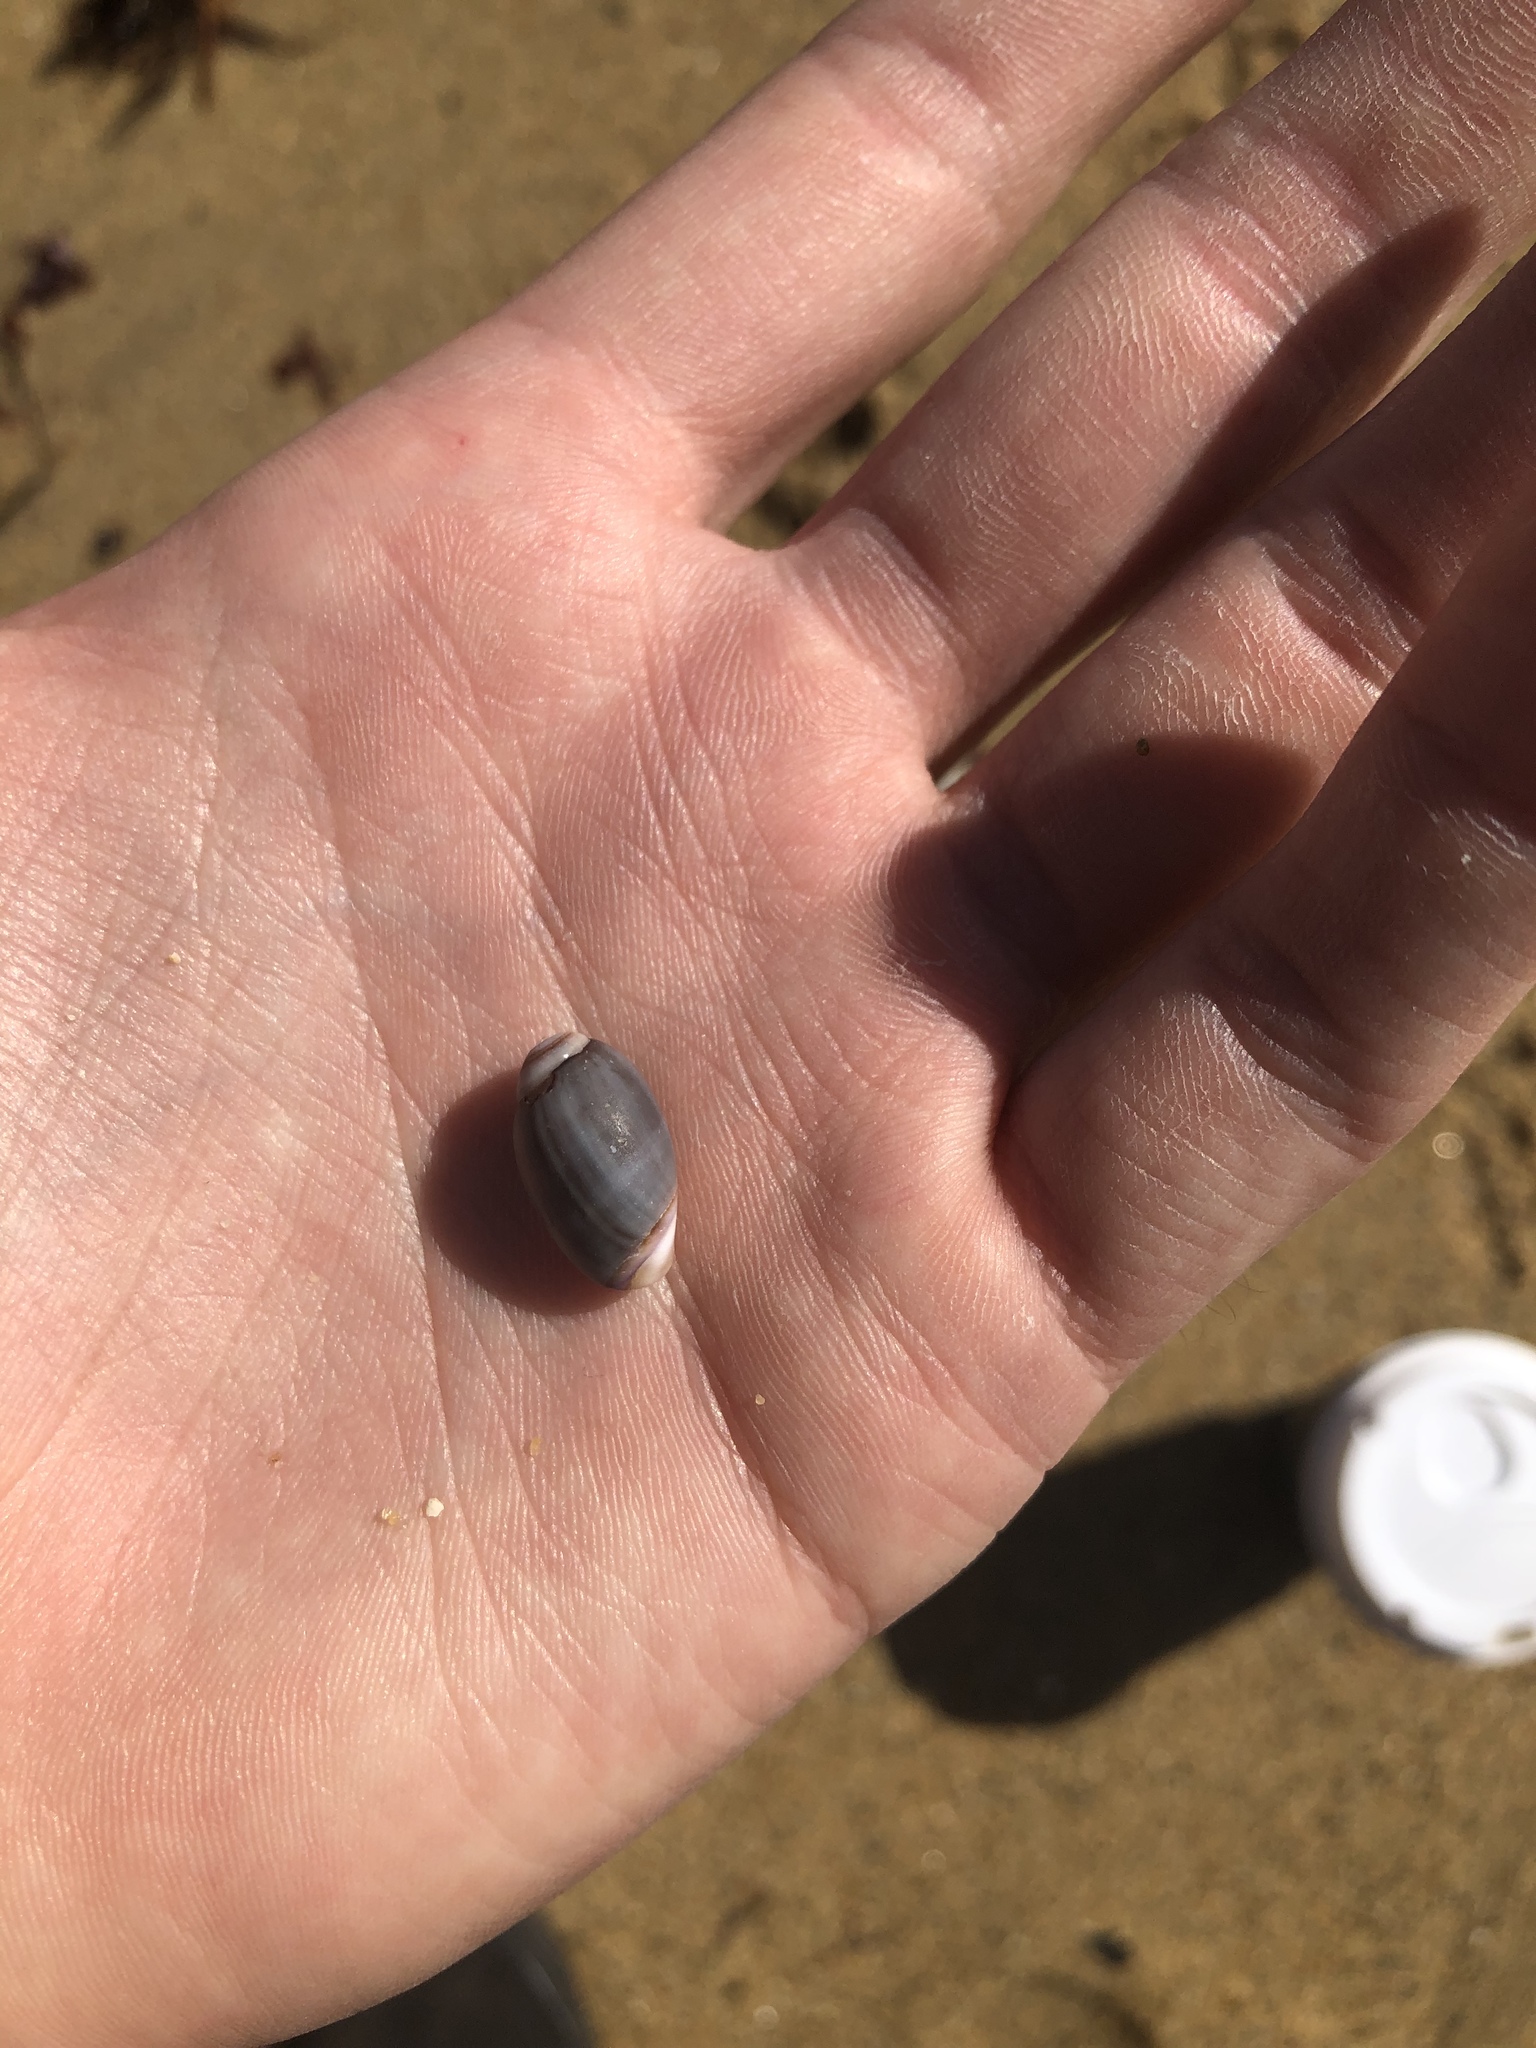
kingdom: Animalia
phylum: Mollusca
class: Gastropoda
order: Neogastropoda
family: Olividae
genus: Callianax
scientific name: Callianax biplicata
